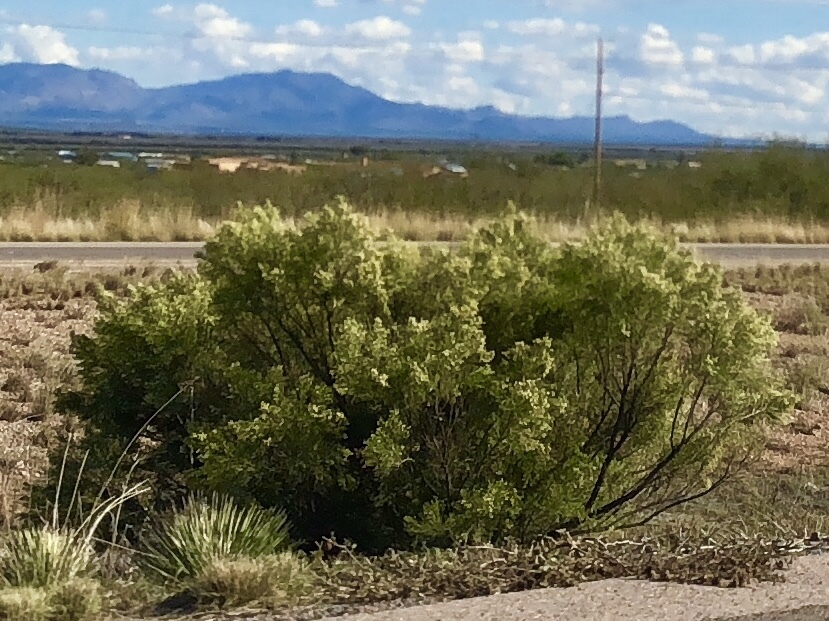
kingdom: Plantae
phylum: Tracheophyta
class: Magnoliopsida
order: Asterales
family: Asteraceae
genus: Baccharis
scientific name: Baccharis sarothroides
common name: Desert-broom
